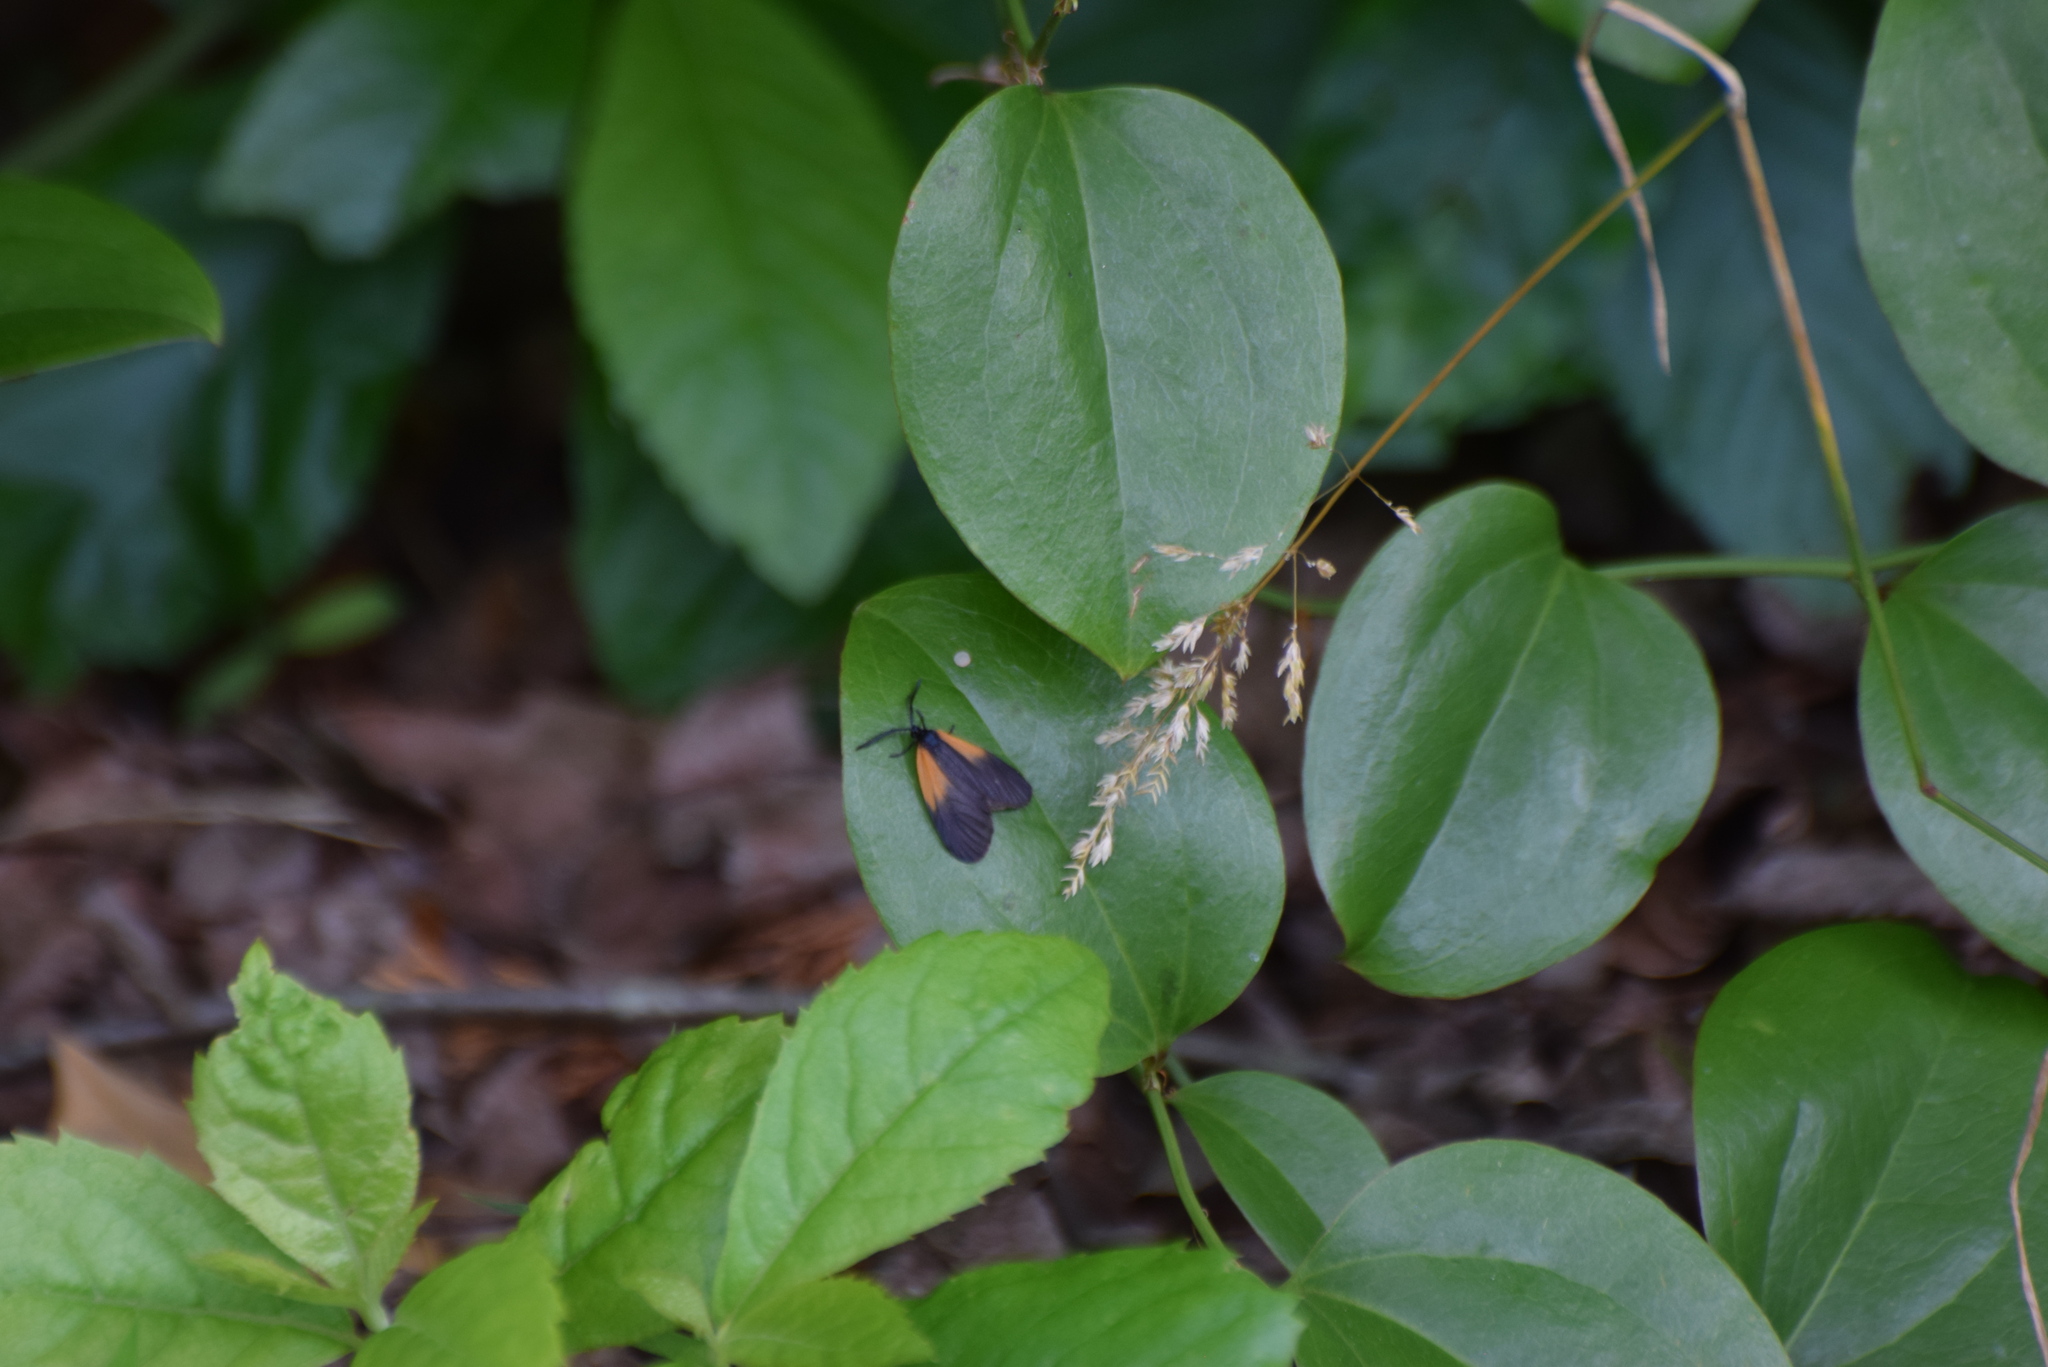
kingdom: Animalia
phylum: Arthropoda
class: Insecta
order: Lepidoptera
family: Zygaenidae
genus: Malthaca
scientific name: Malthaca dimidiata
